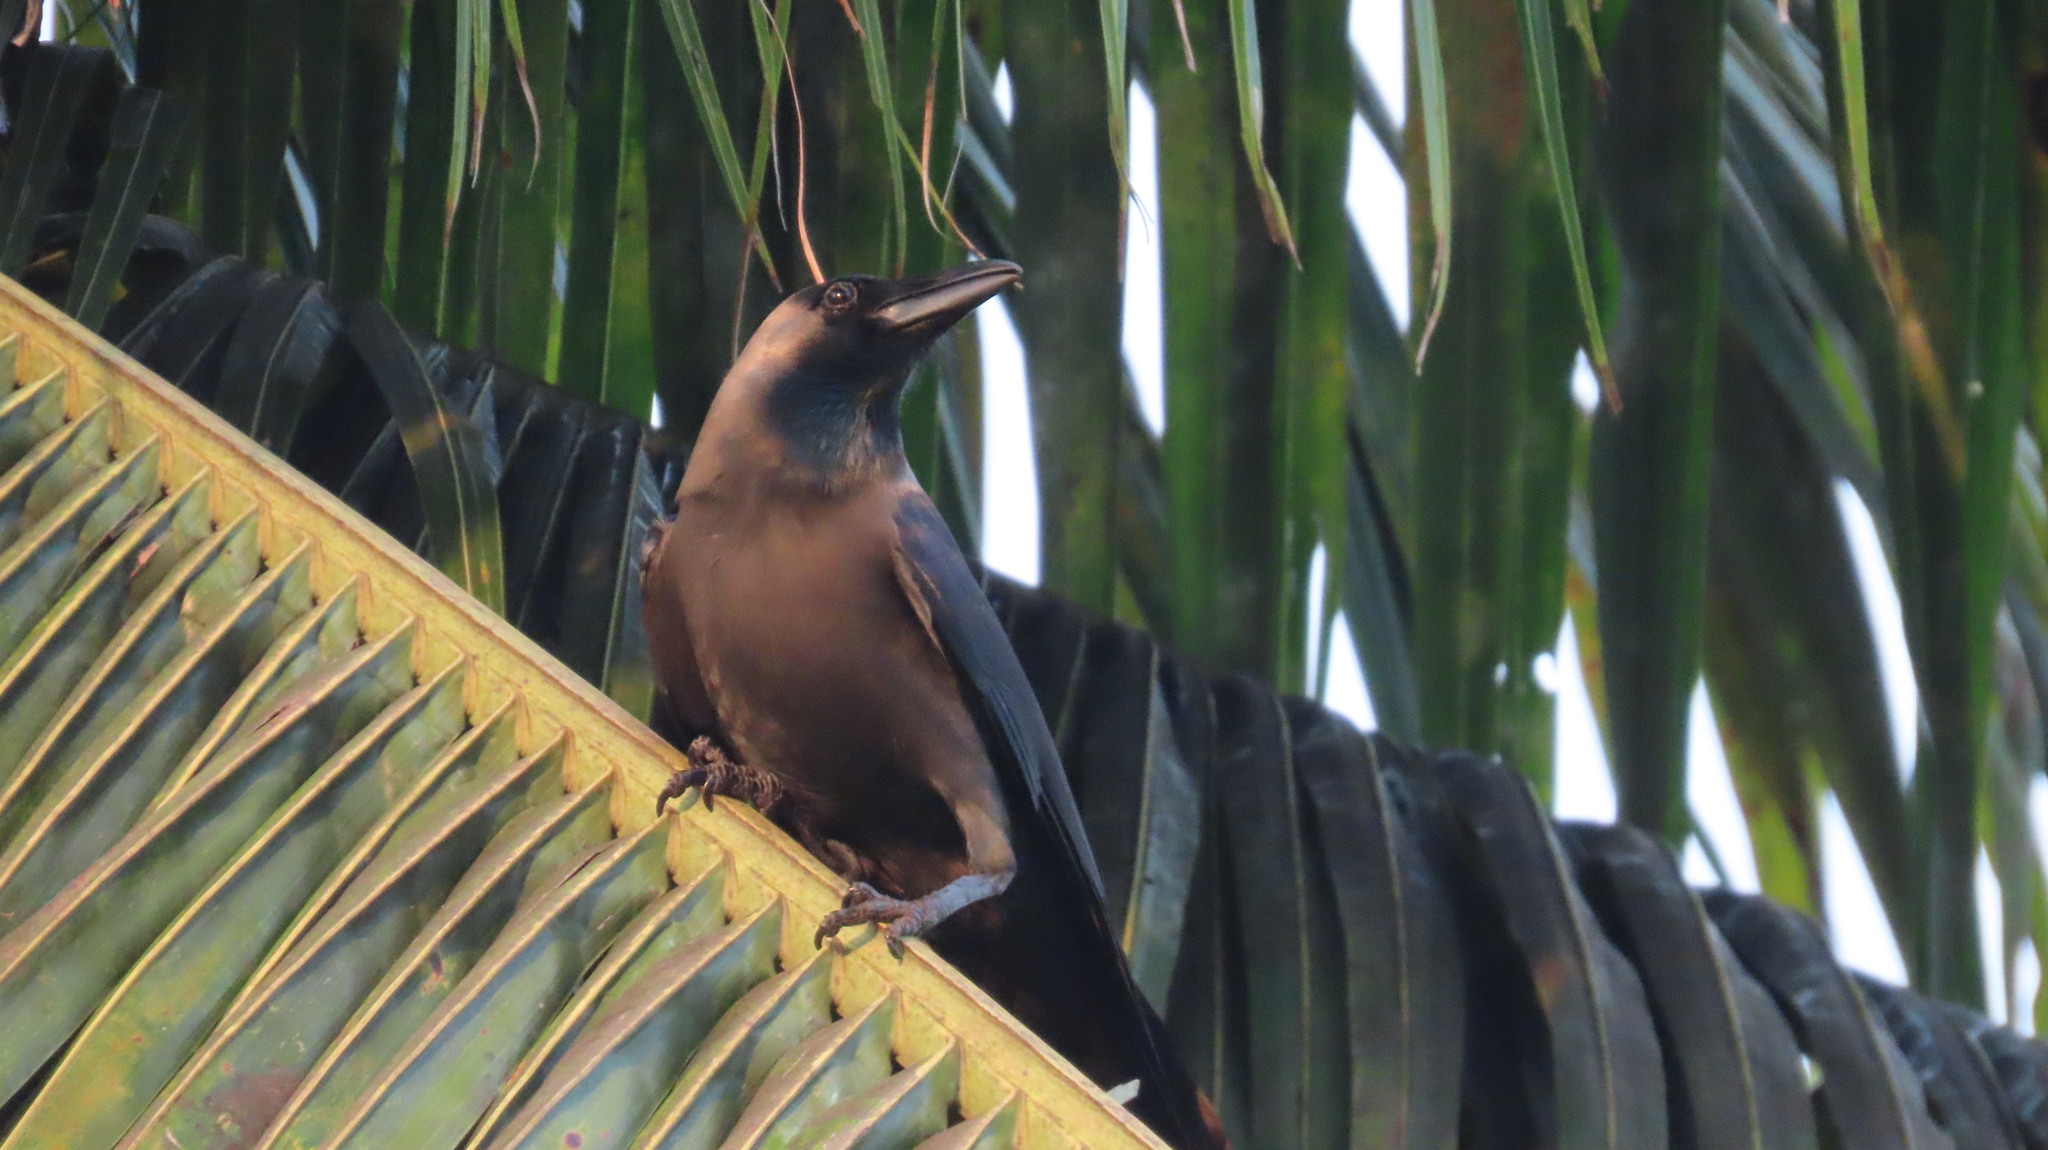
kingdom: Animalia
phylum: Chordata
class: Aves
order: Passeriformes
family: Corvidae
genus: Corvus
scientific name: Corvus splendens
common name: House crow
